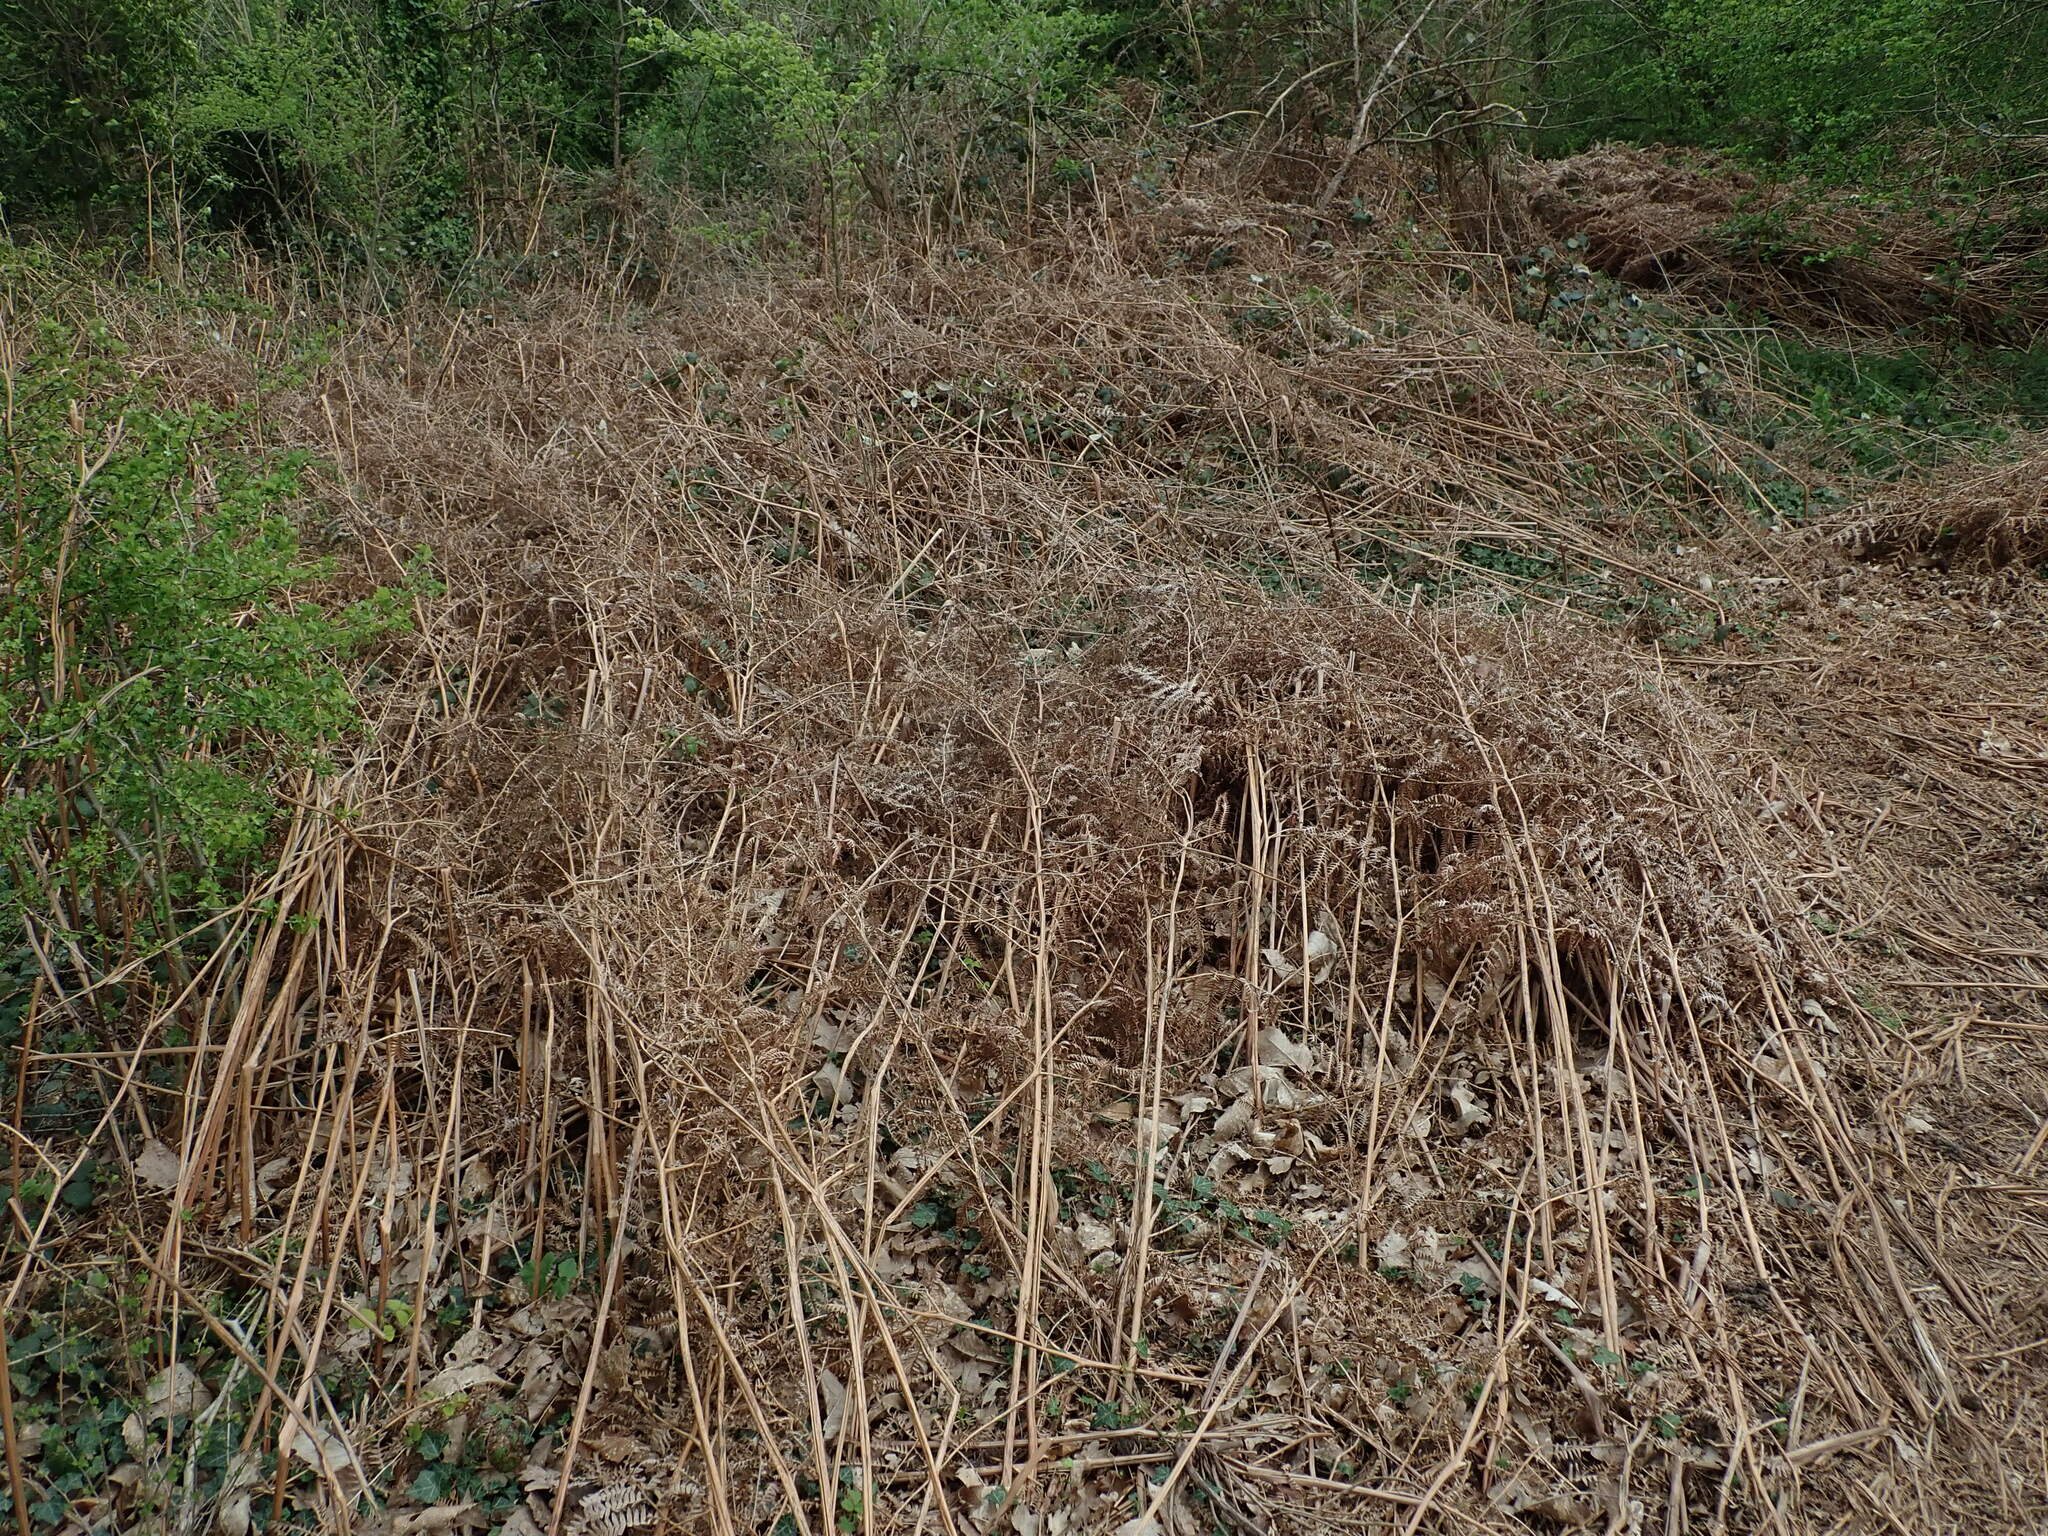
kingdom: Plantae
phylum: Tracheophyta
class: Polypodiopsida
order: Polypodiales
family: Dennstaedtiaceae
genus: Pteridium
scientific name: Pteridium aquilinum
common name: Bracken
